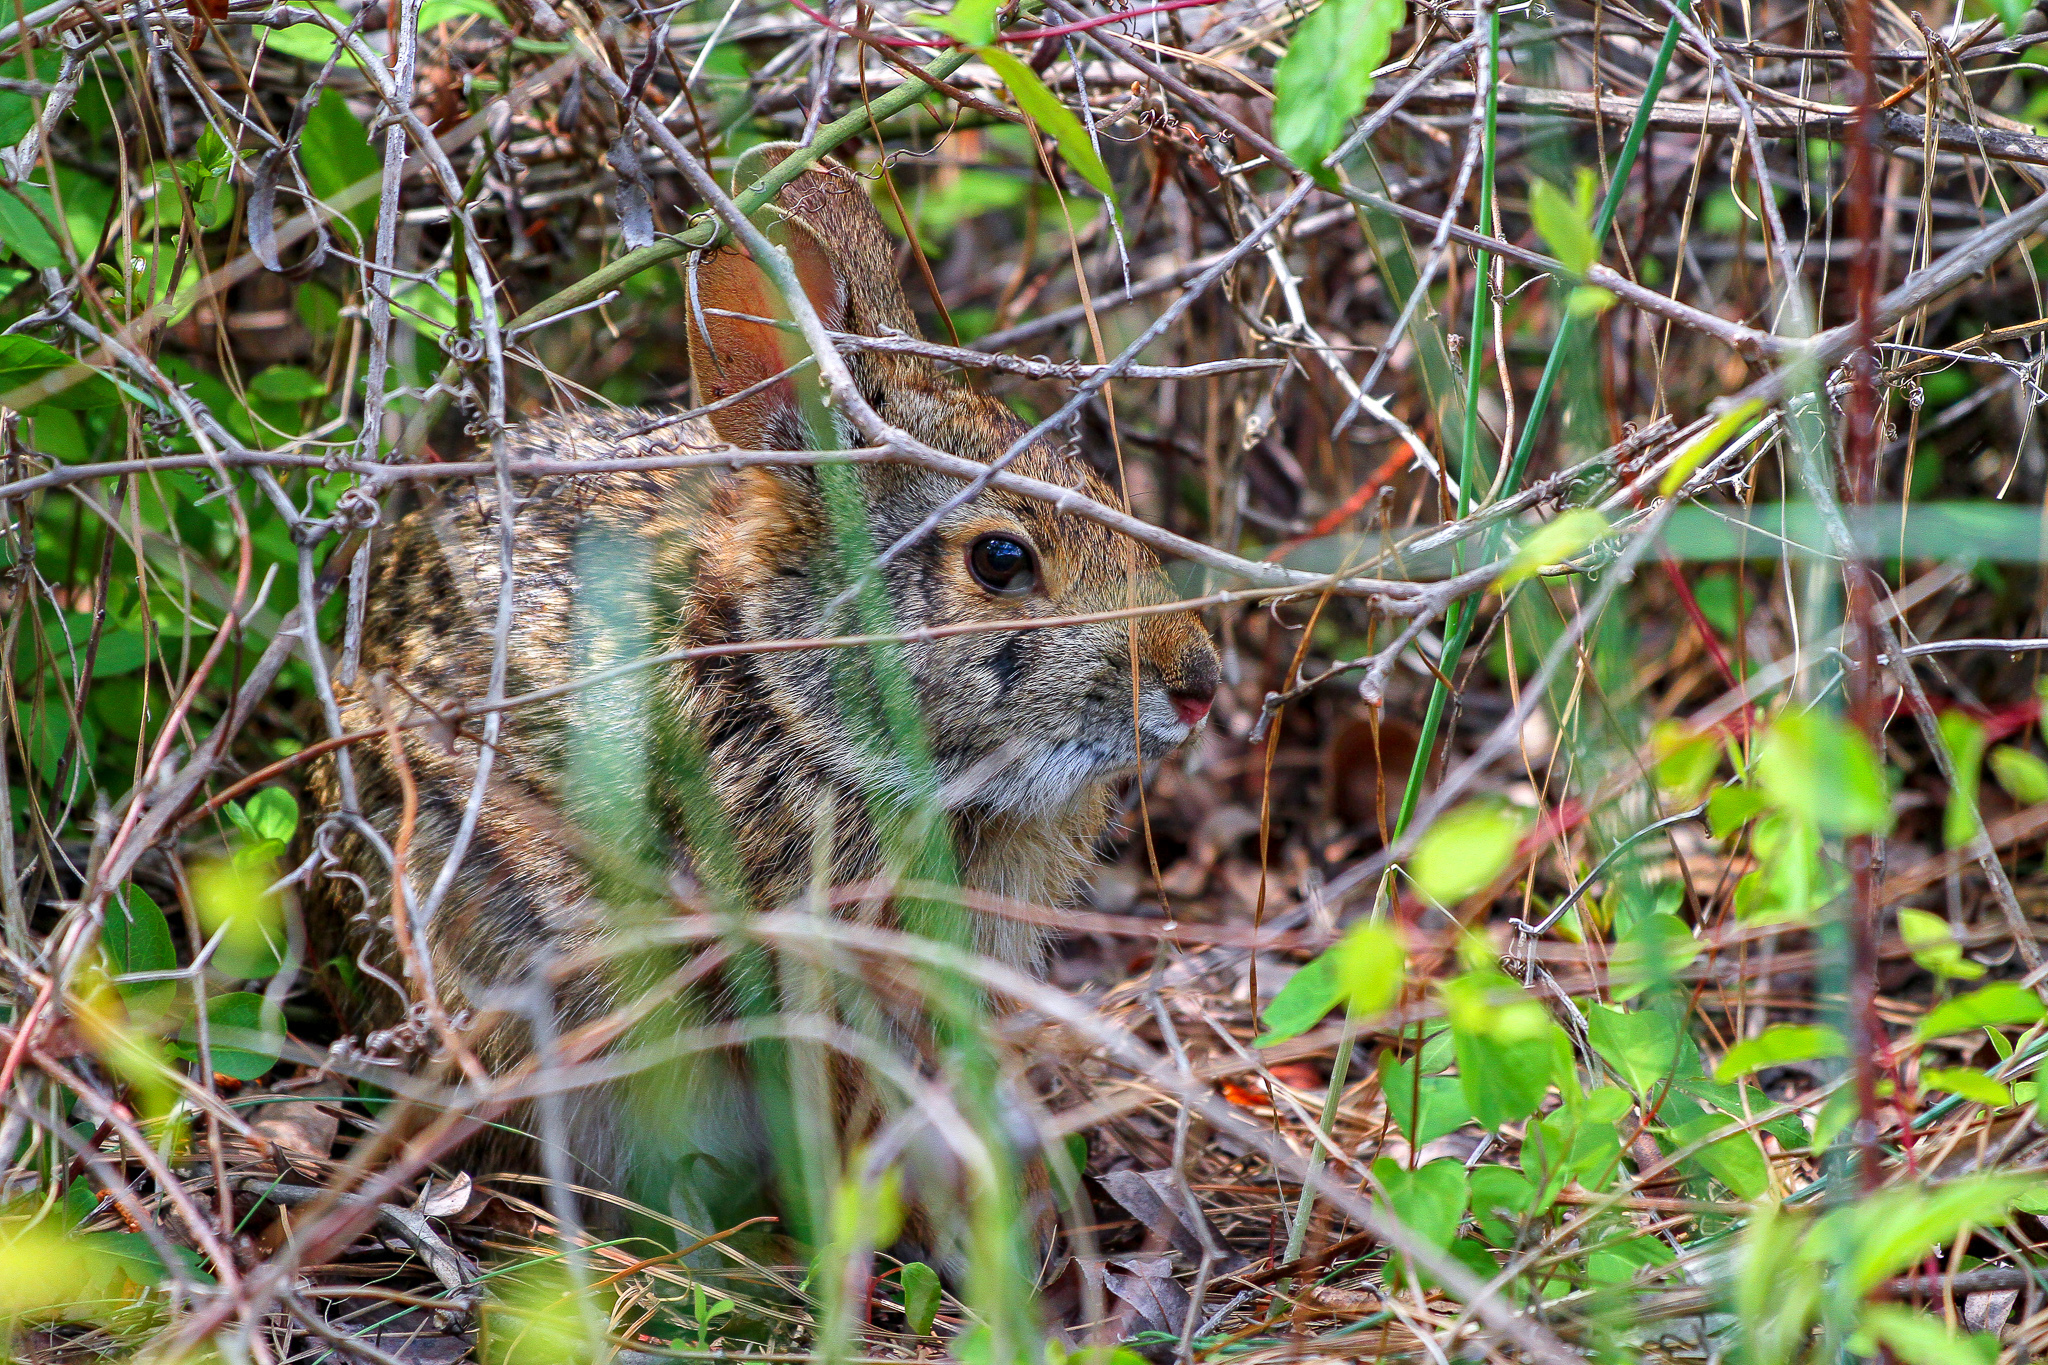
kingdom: Animalia
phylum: Chordata
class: Mammalia
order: Lagomorpha
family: Leporidae
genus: Sylvilagus
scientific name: Sylvilagus palustris
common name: Marsh rabbit
